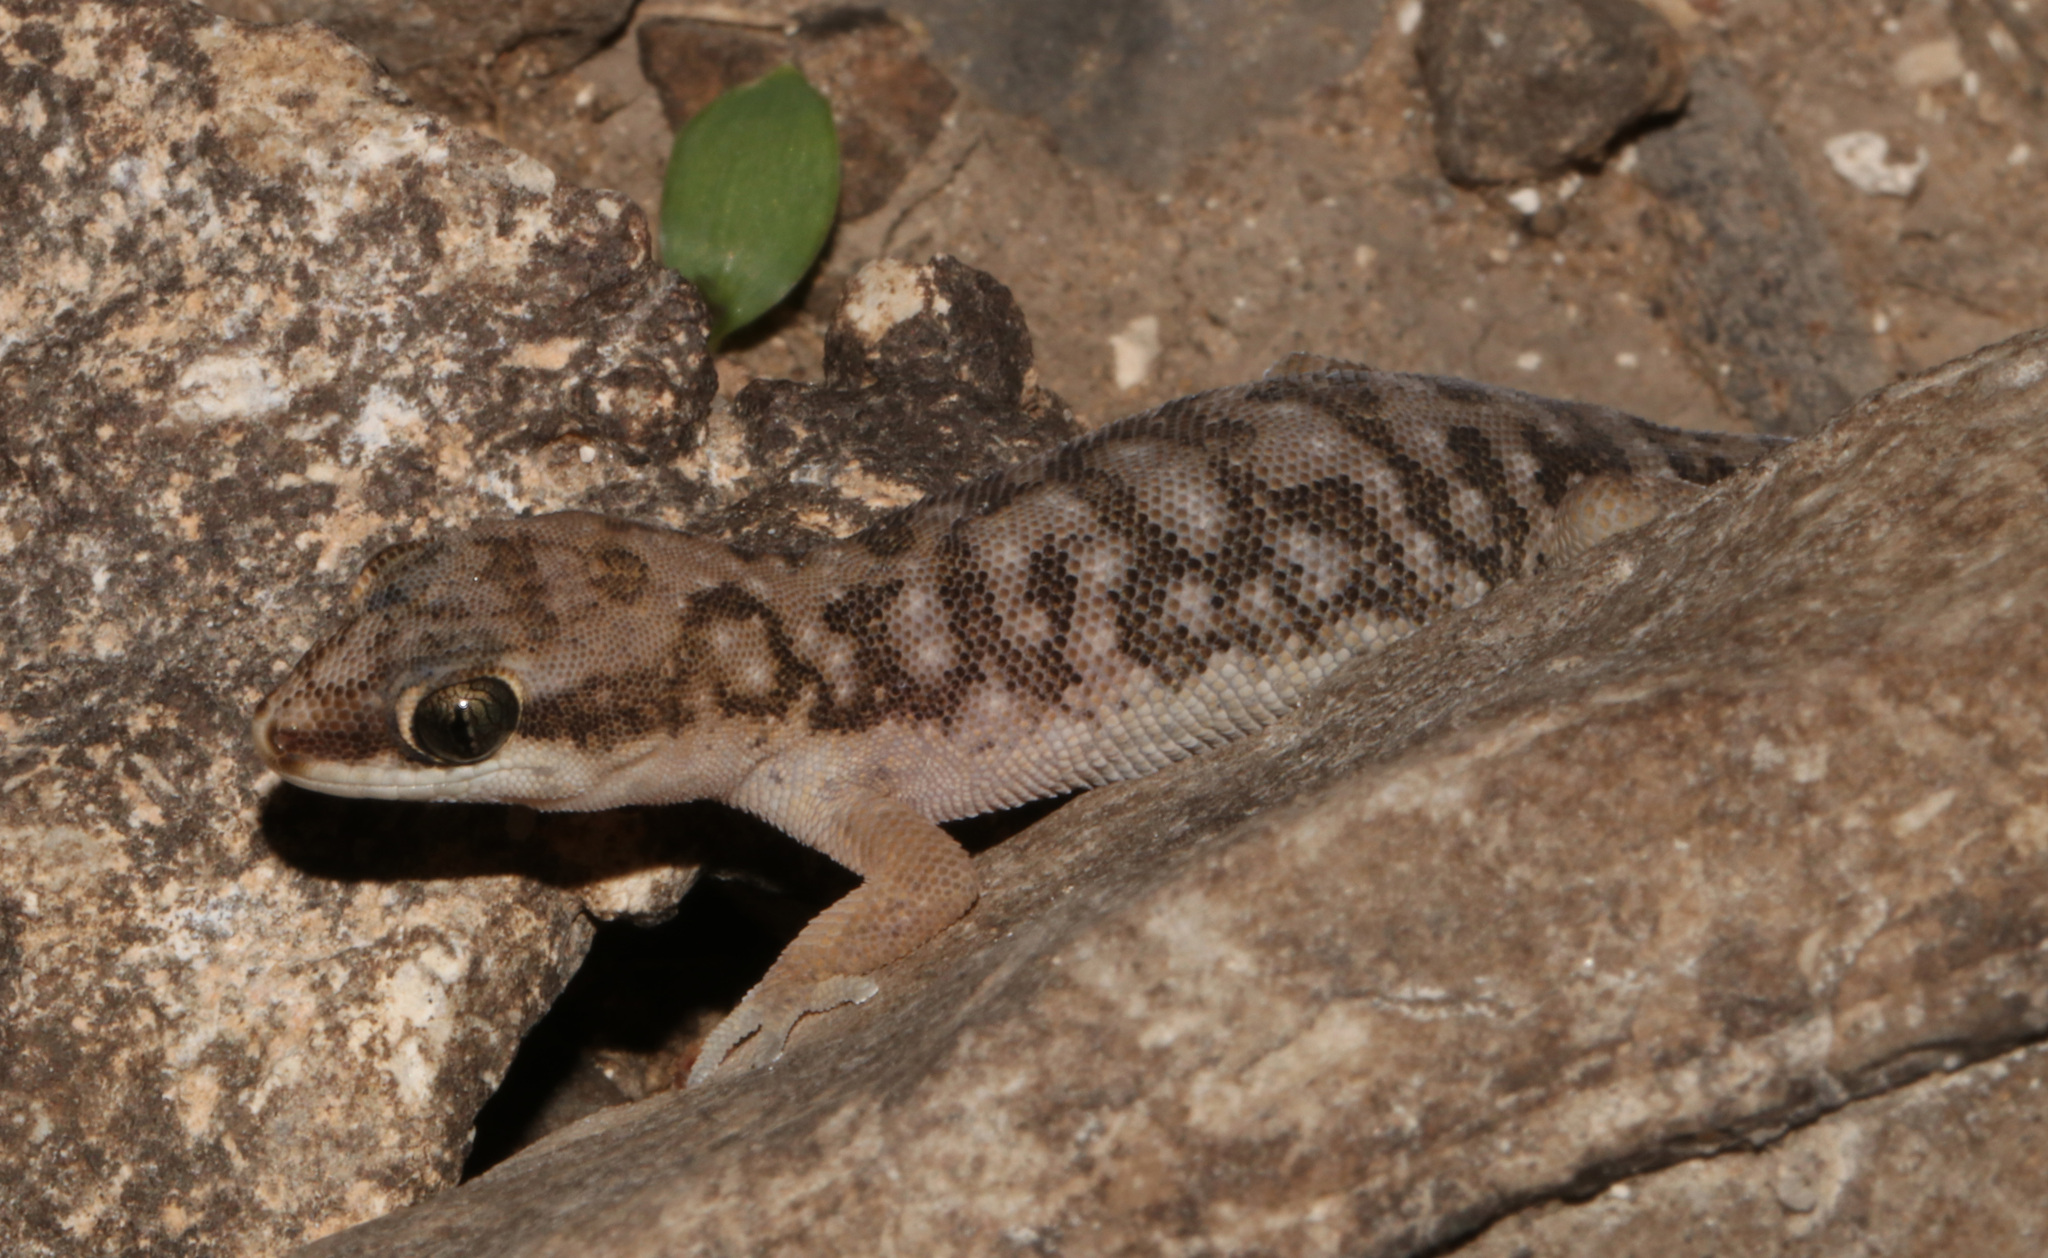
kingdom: Animalia
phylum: Chordata
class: Squamata
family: Gekkonidae
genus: Pachydactylus
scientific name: Pachydactylus punctatus
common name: Pointed thick-toed gecko
